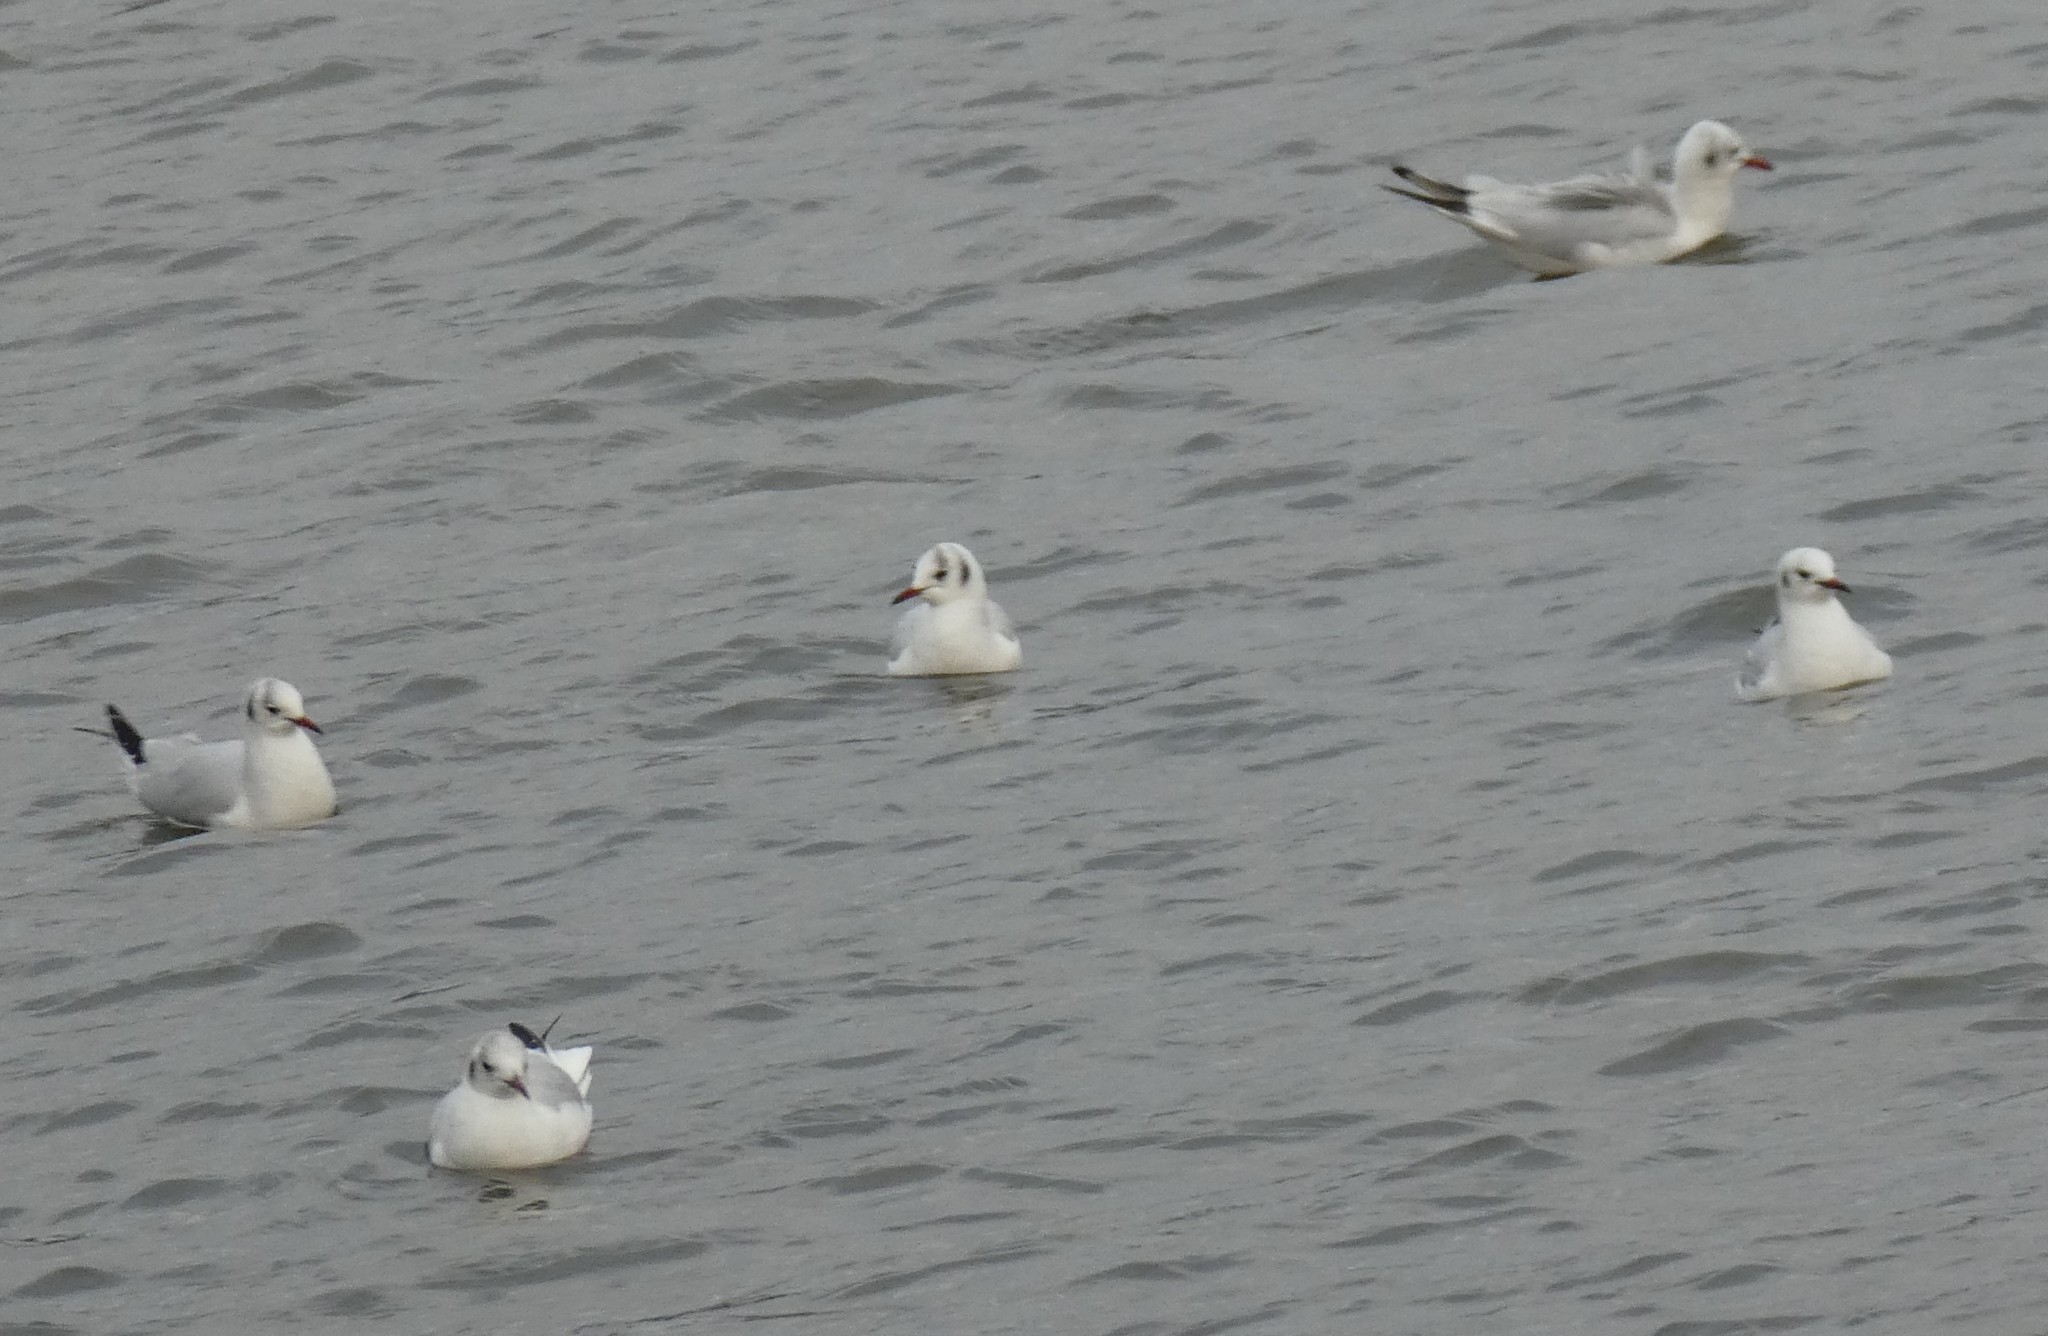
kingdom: Animalia
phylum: Chordata
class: Aves
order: Charadriiformes
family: Laridae
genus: Chroicocephalus
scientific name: Chroicocephalus ridibundus
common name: Black-headed gull
